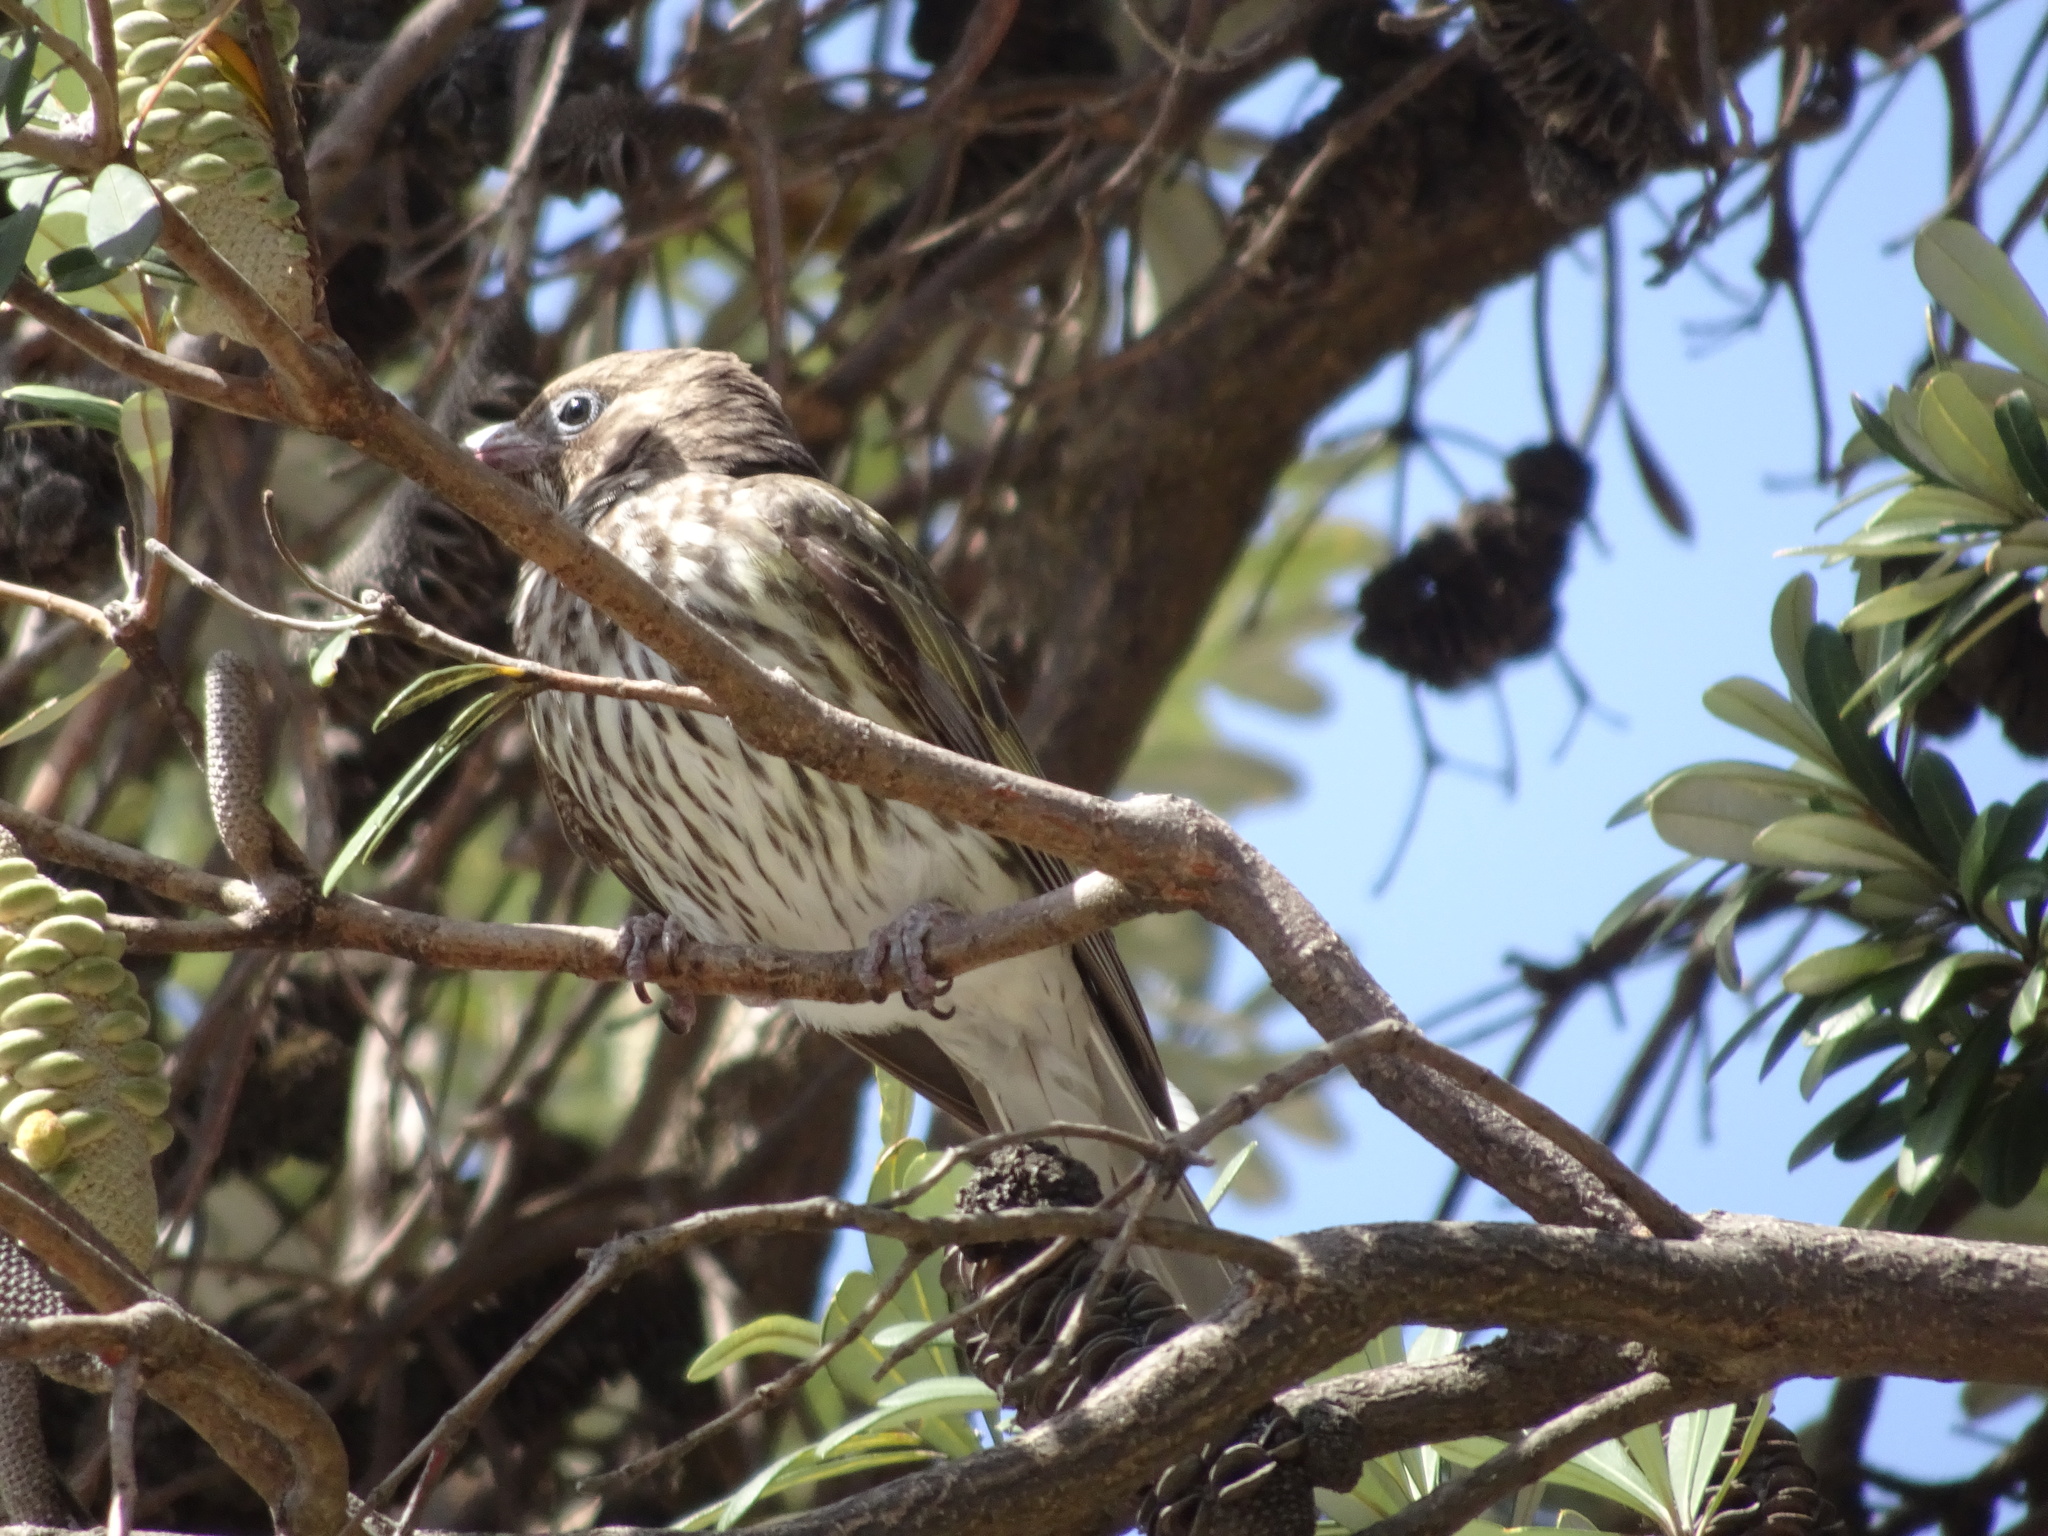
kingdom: Animalia
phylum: Chordata
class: Aves
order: Passeriformes
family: Oriolidae
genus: Sphecotheres
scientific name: Sphecotheres vieilloti
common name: Australasian figbird
